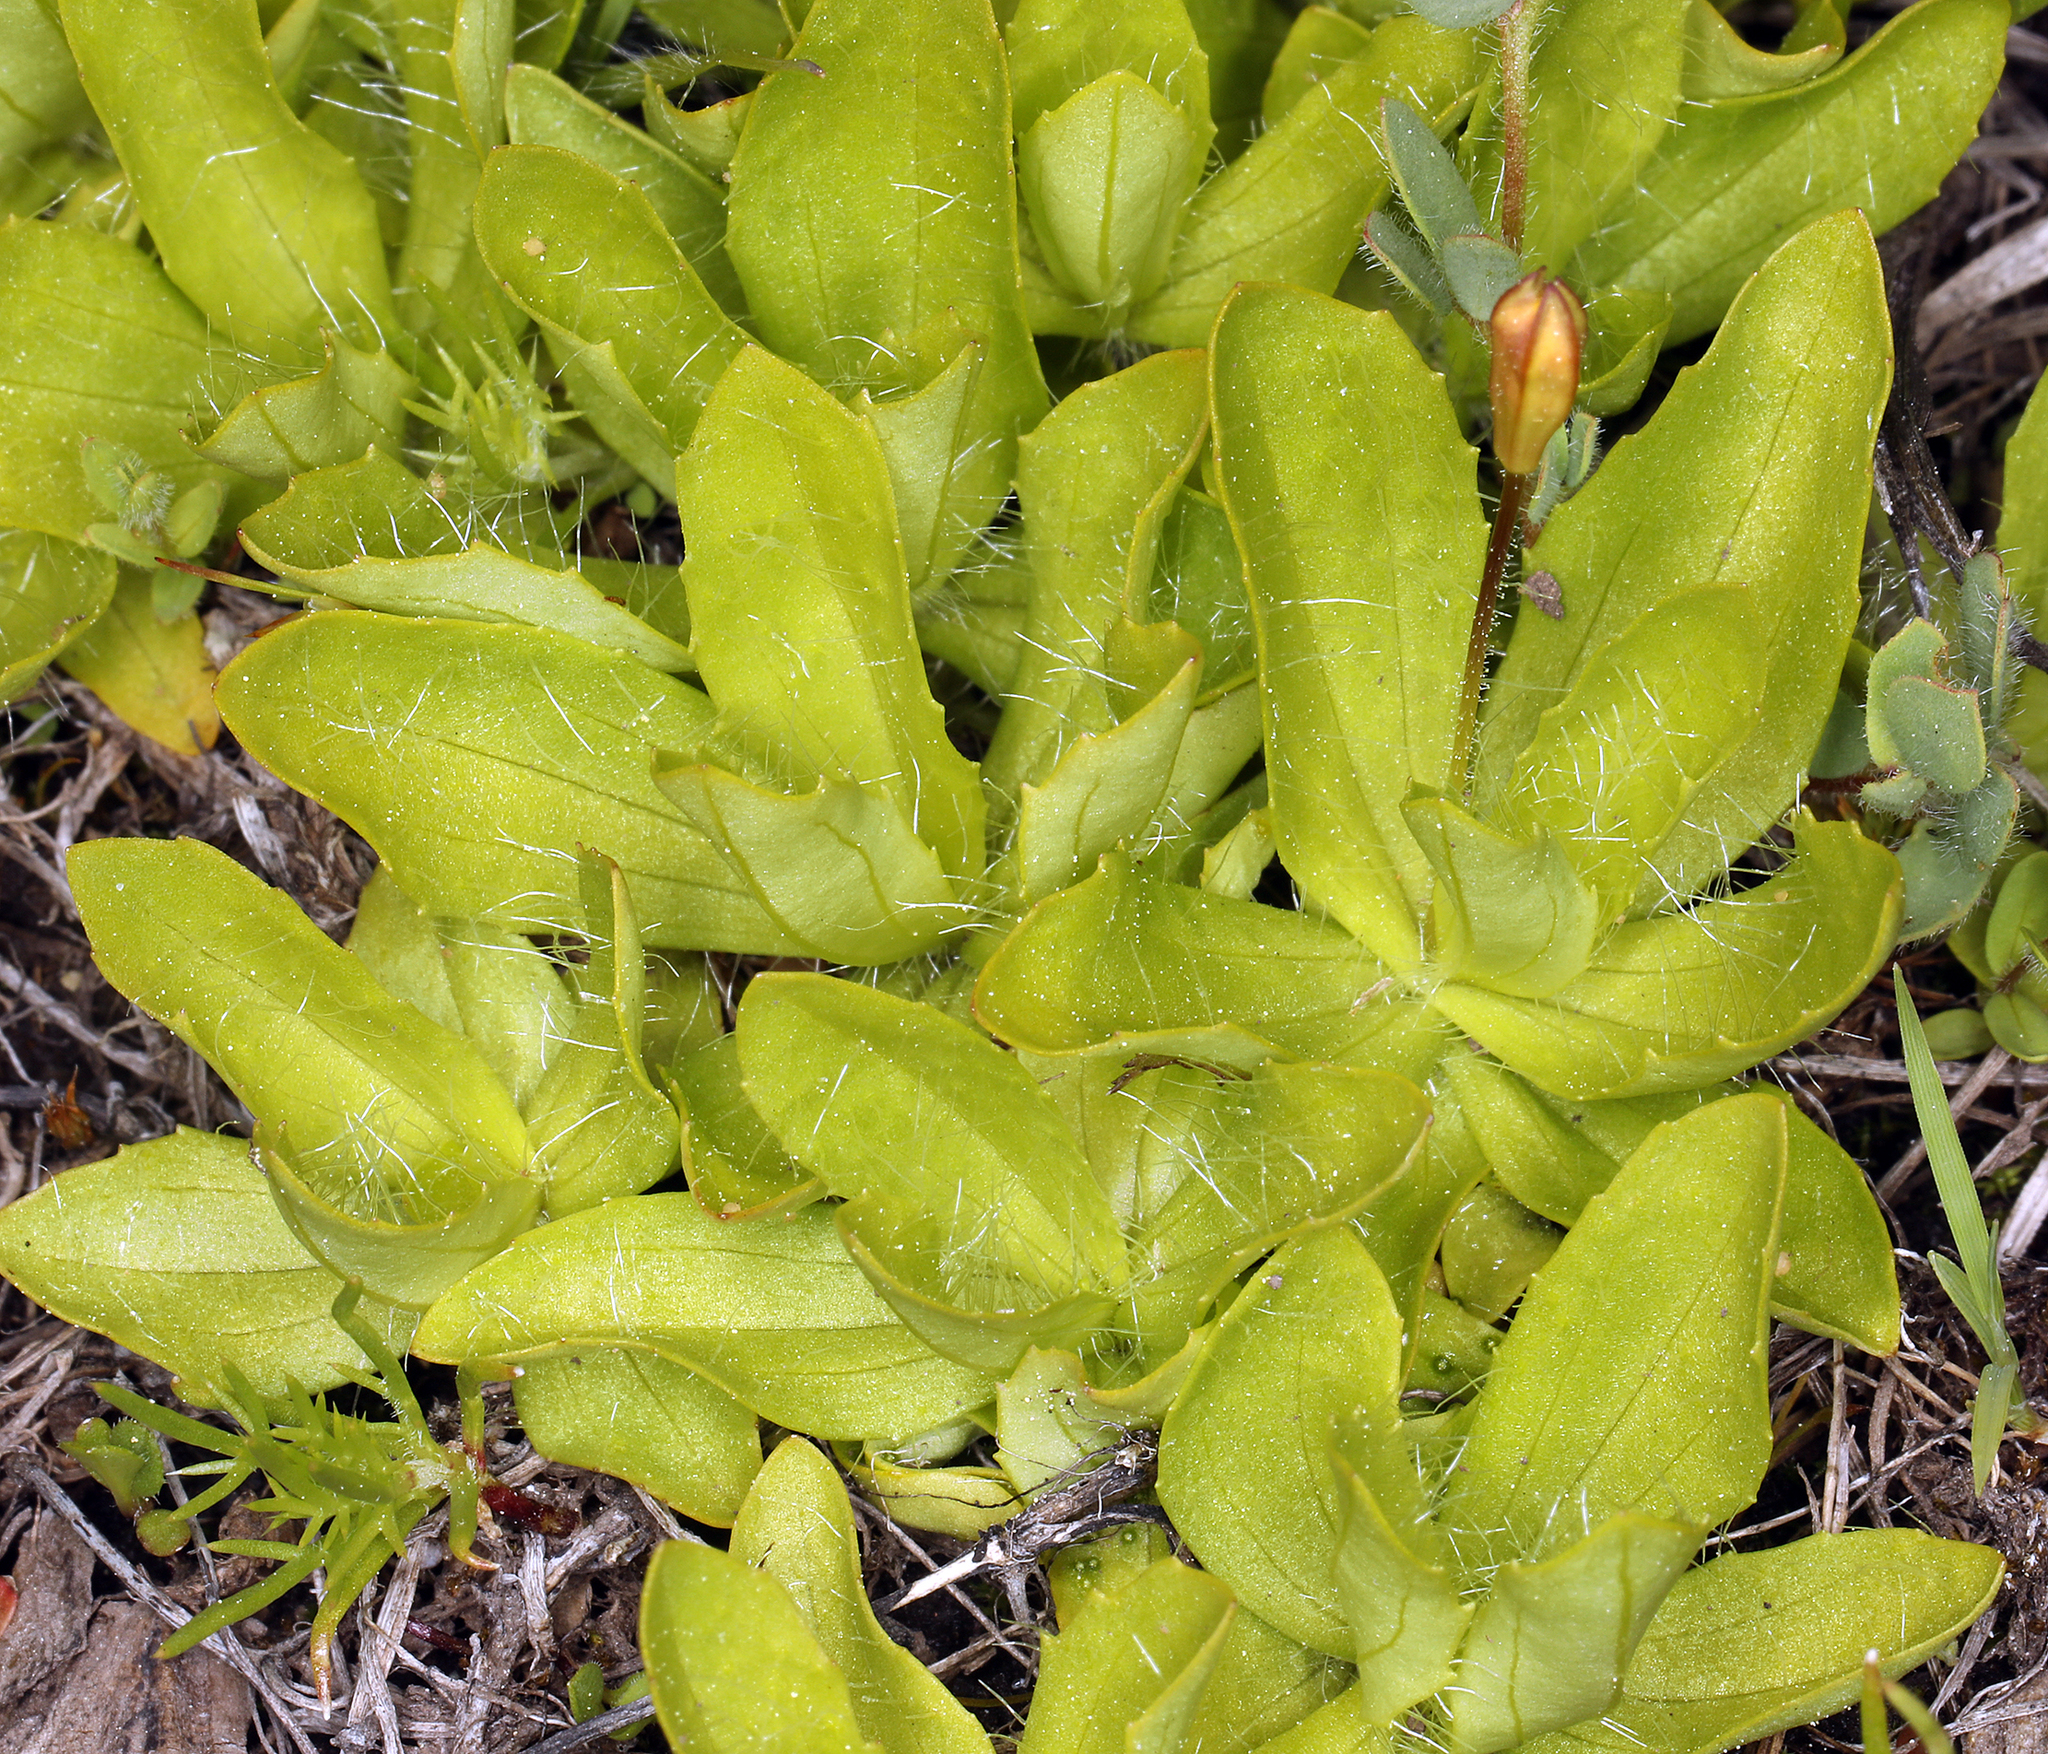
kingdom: Plantae
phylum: Tracheophyta
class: Magnoliopsida
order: Lamiales
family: Phrymaceae
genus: Erythranthe
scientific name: Erythranthe primuloides
